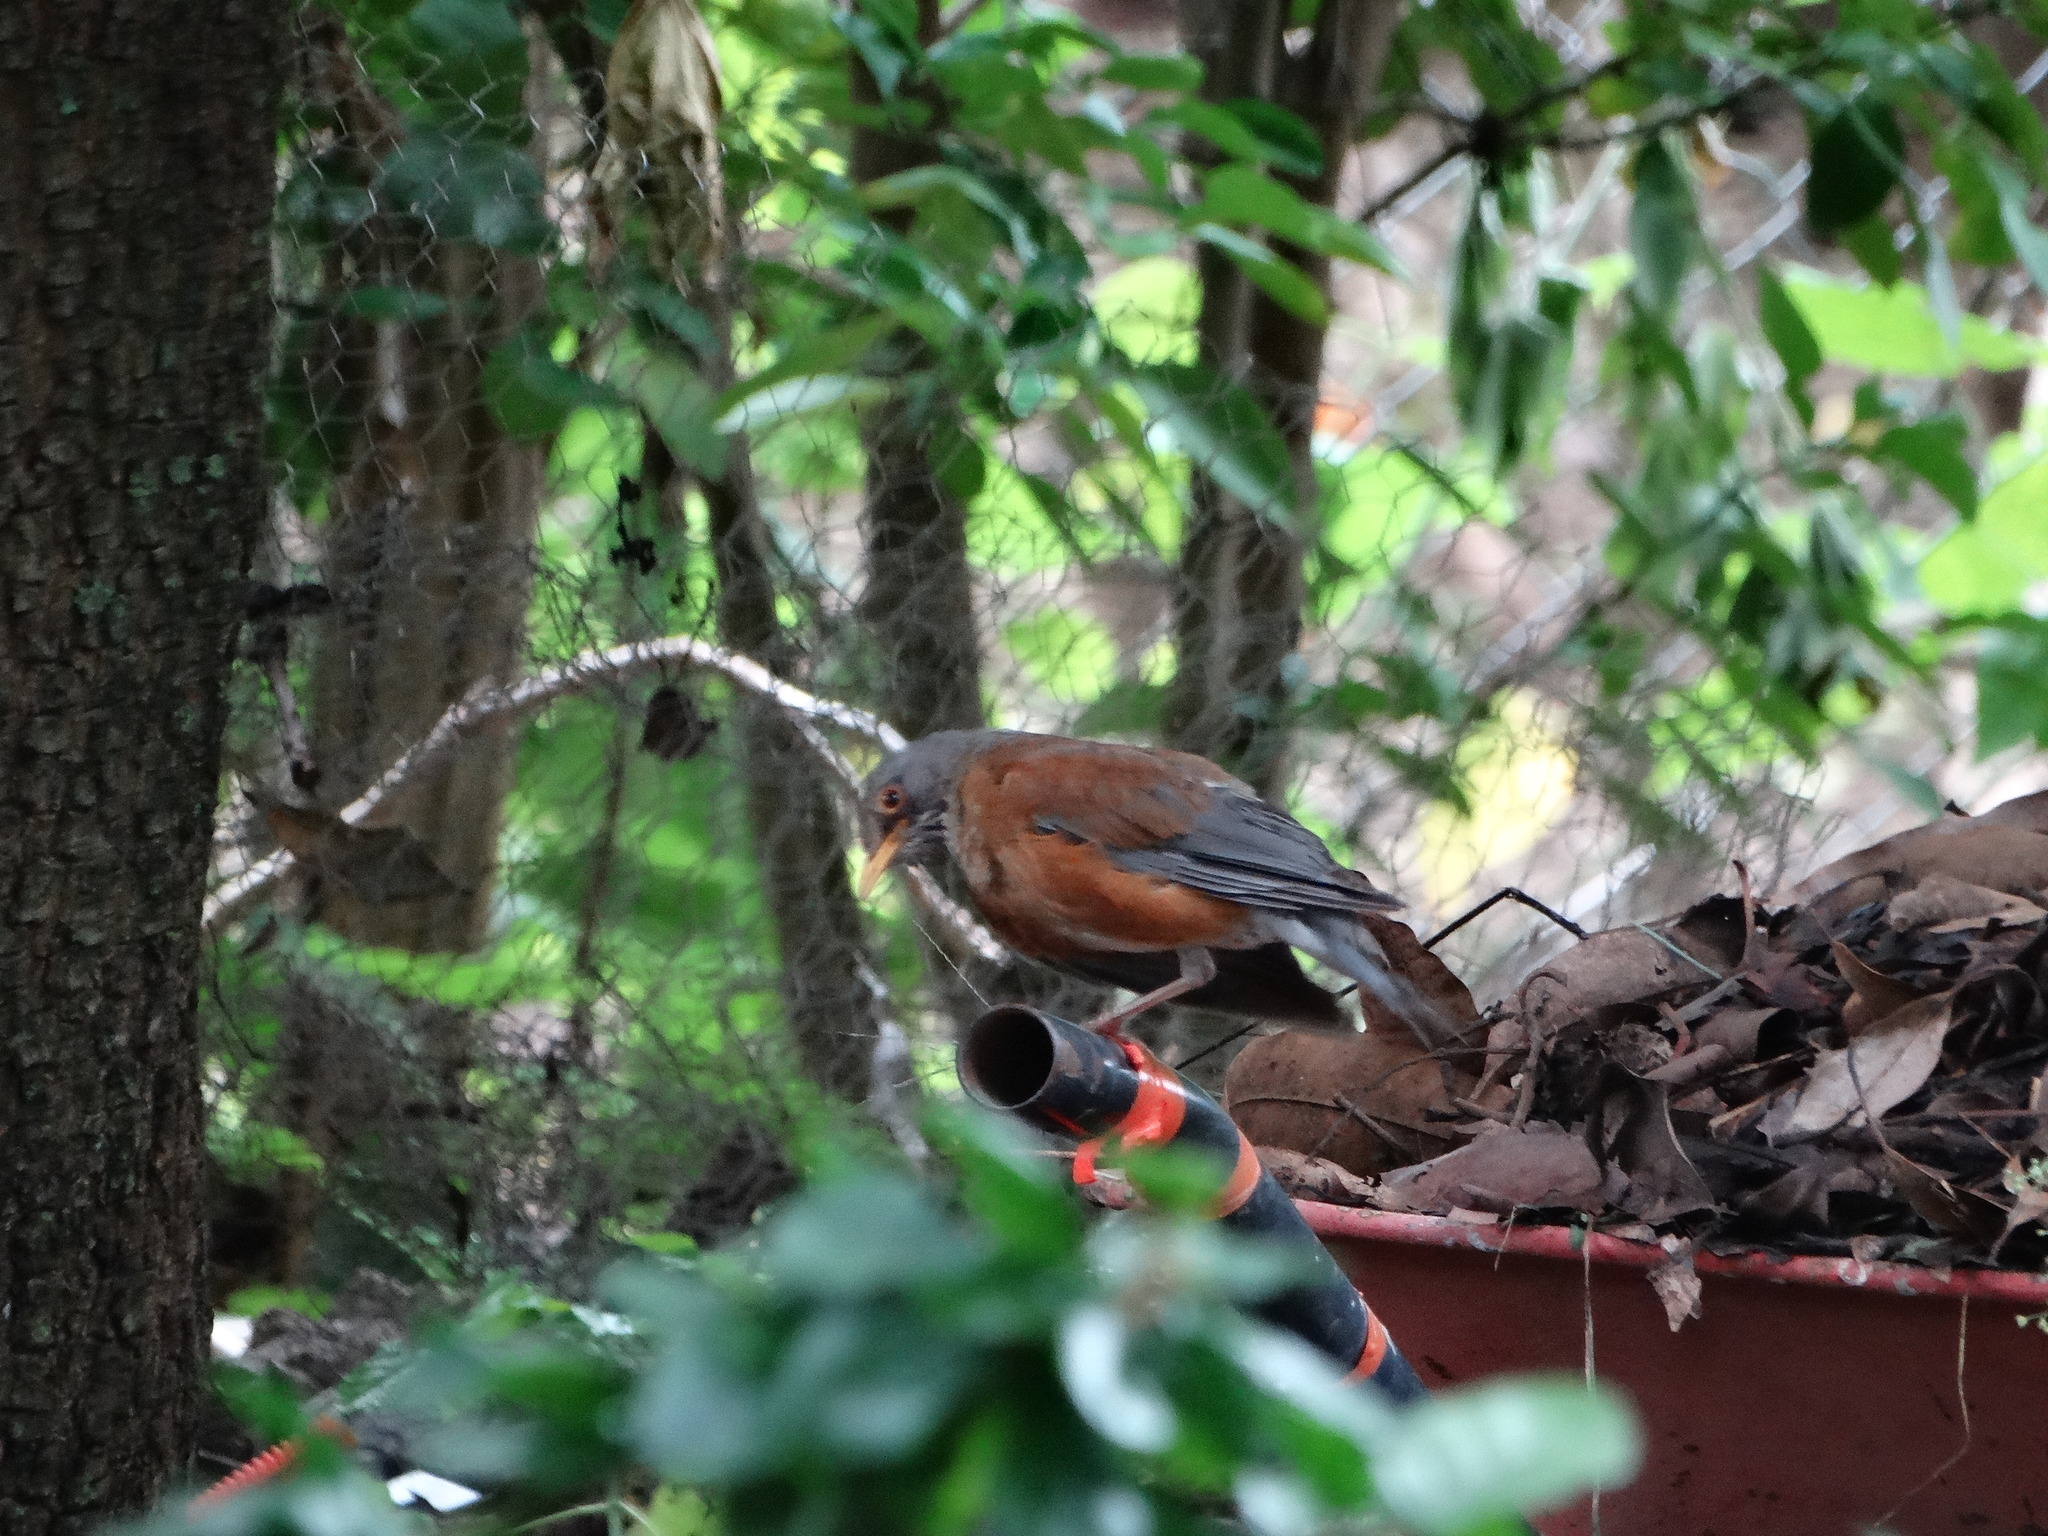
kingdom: Animalia
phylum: Chordata
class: Aves
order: Passeriformes
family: Turdidae
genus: Turdus
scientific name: Turdus rufopalliatus
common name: Rufous-backed robin
